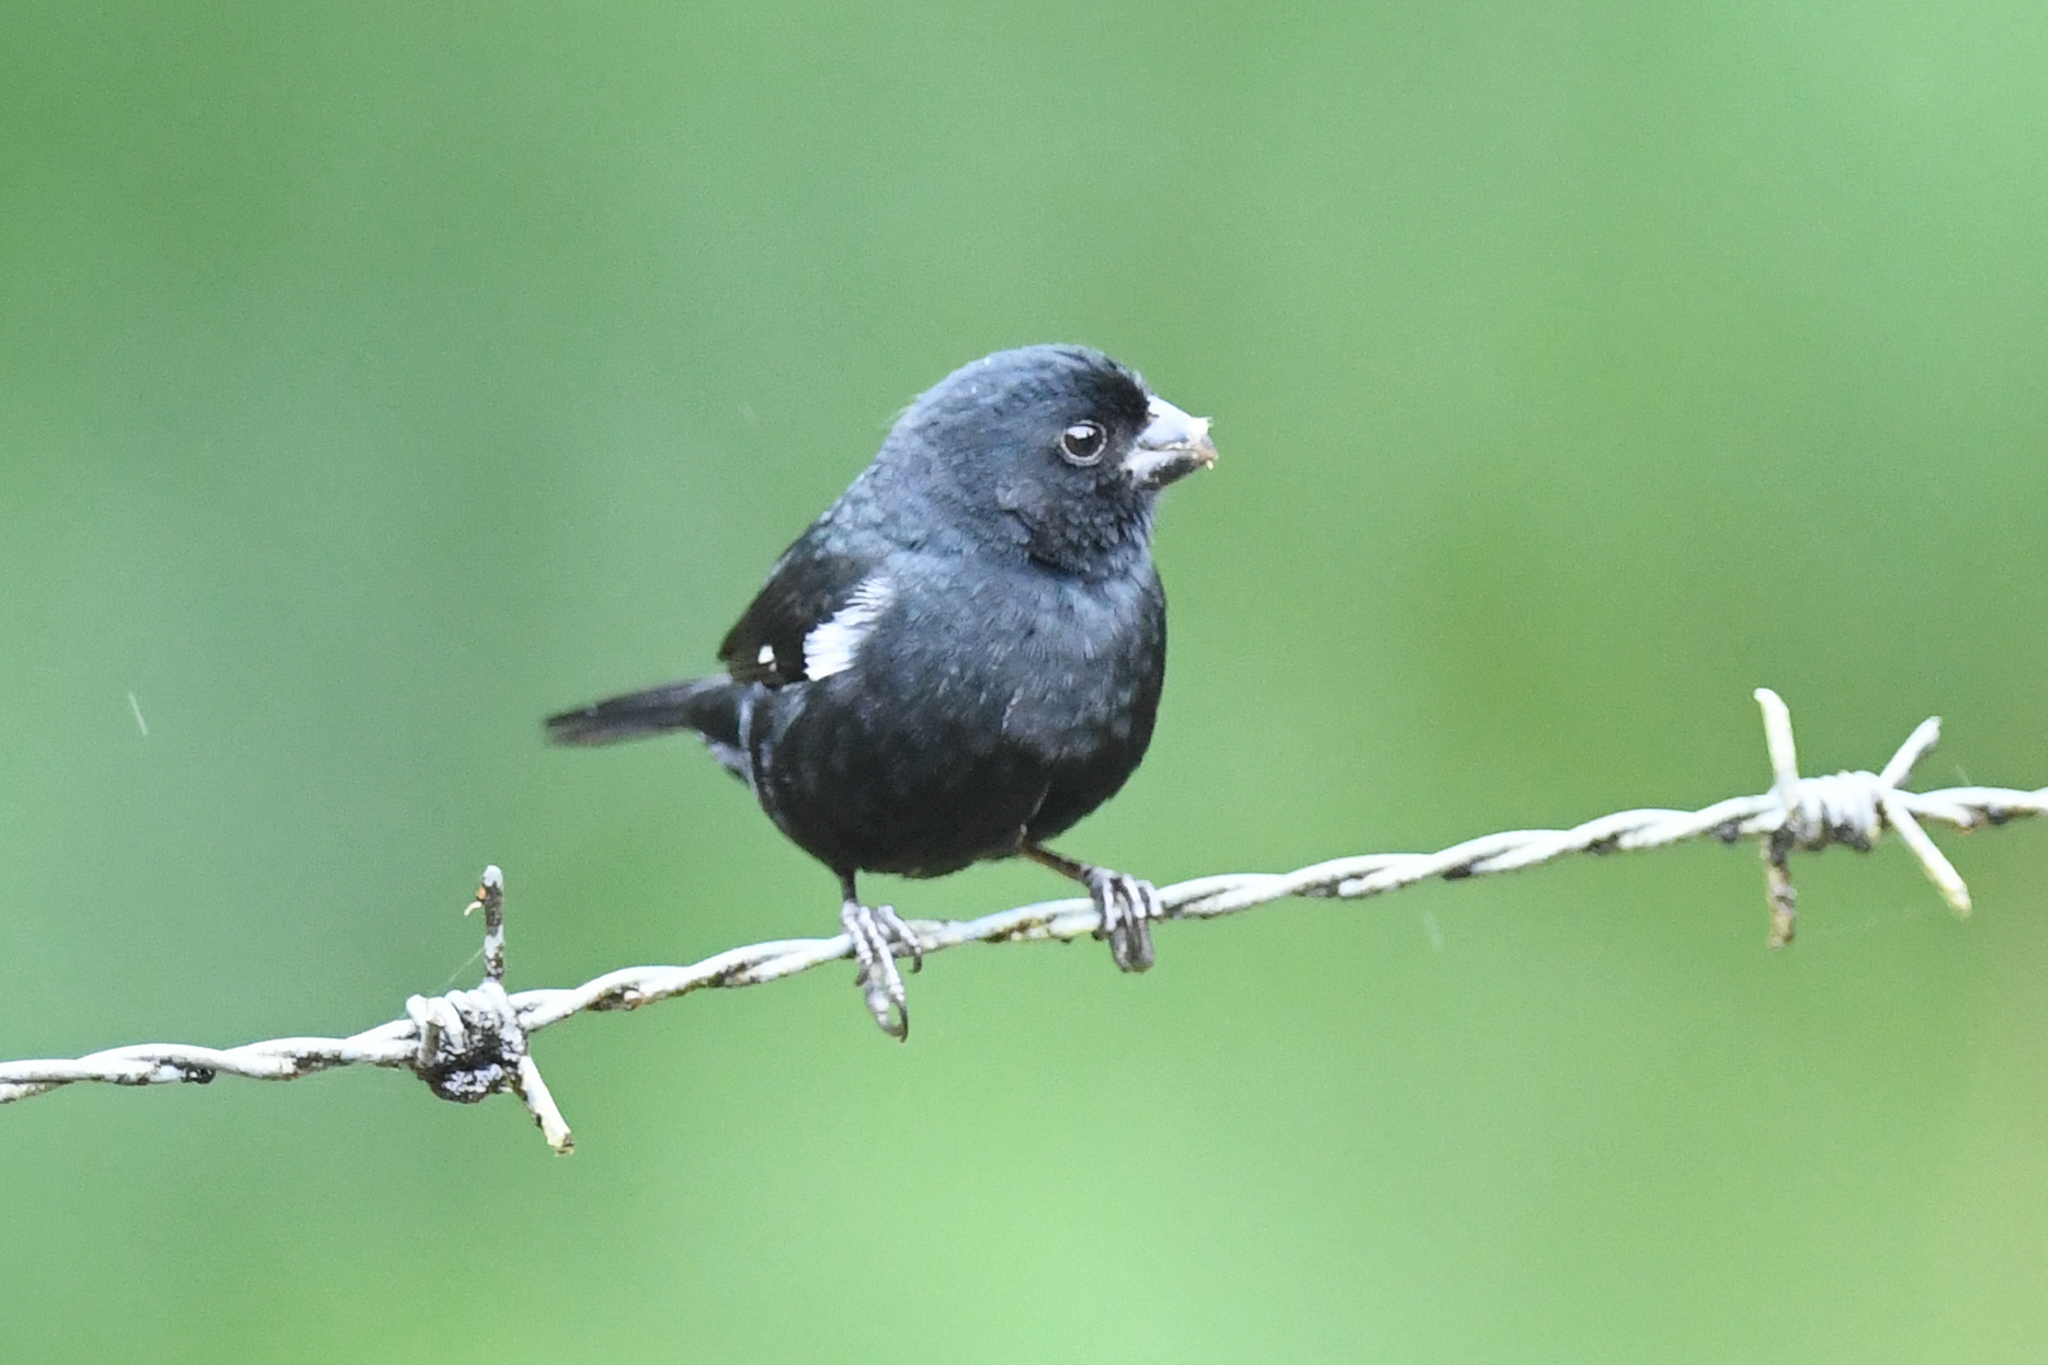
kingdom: Animalia
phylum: Chordata
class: Aves
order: Passeriformes
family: Thraupidae
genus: Sporophila
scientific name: Sporophila corvina
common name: Variable seedeater
